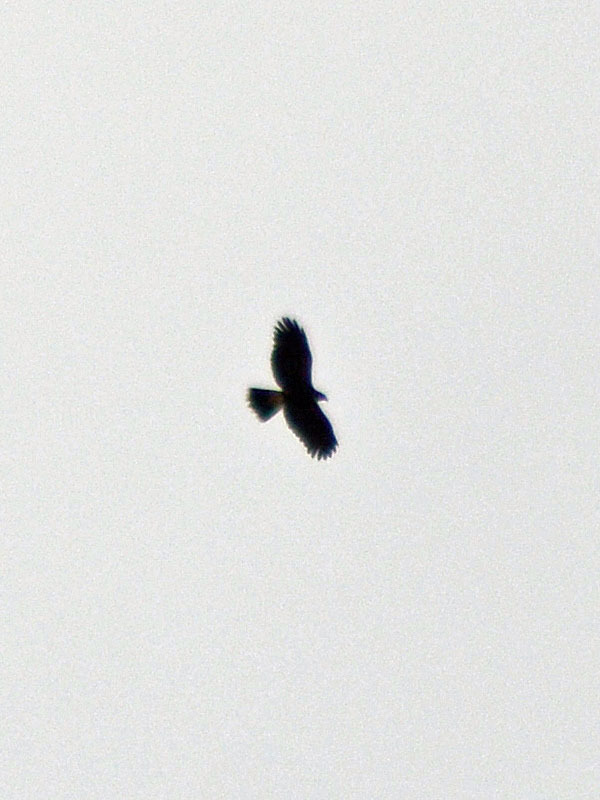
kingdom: Animalia
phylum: Chordata
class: Aves
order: Accipitriformes
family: Accipitridae
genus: Parabuteo
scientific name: Parabuteo unicinctus
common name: Harris's hawk
